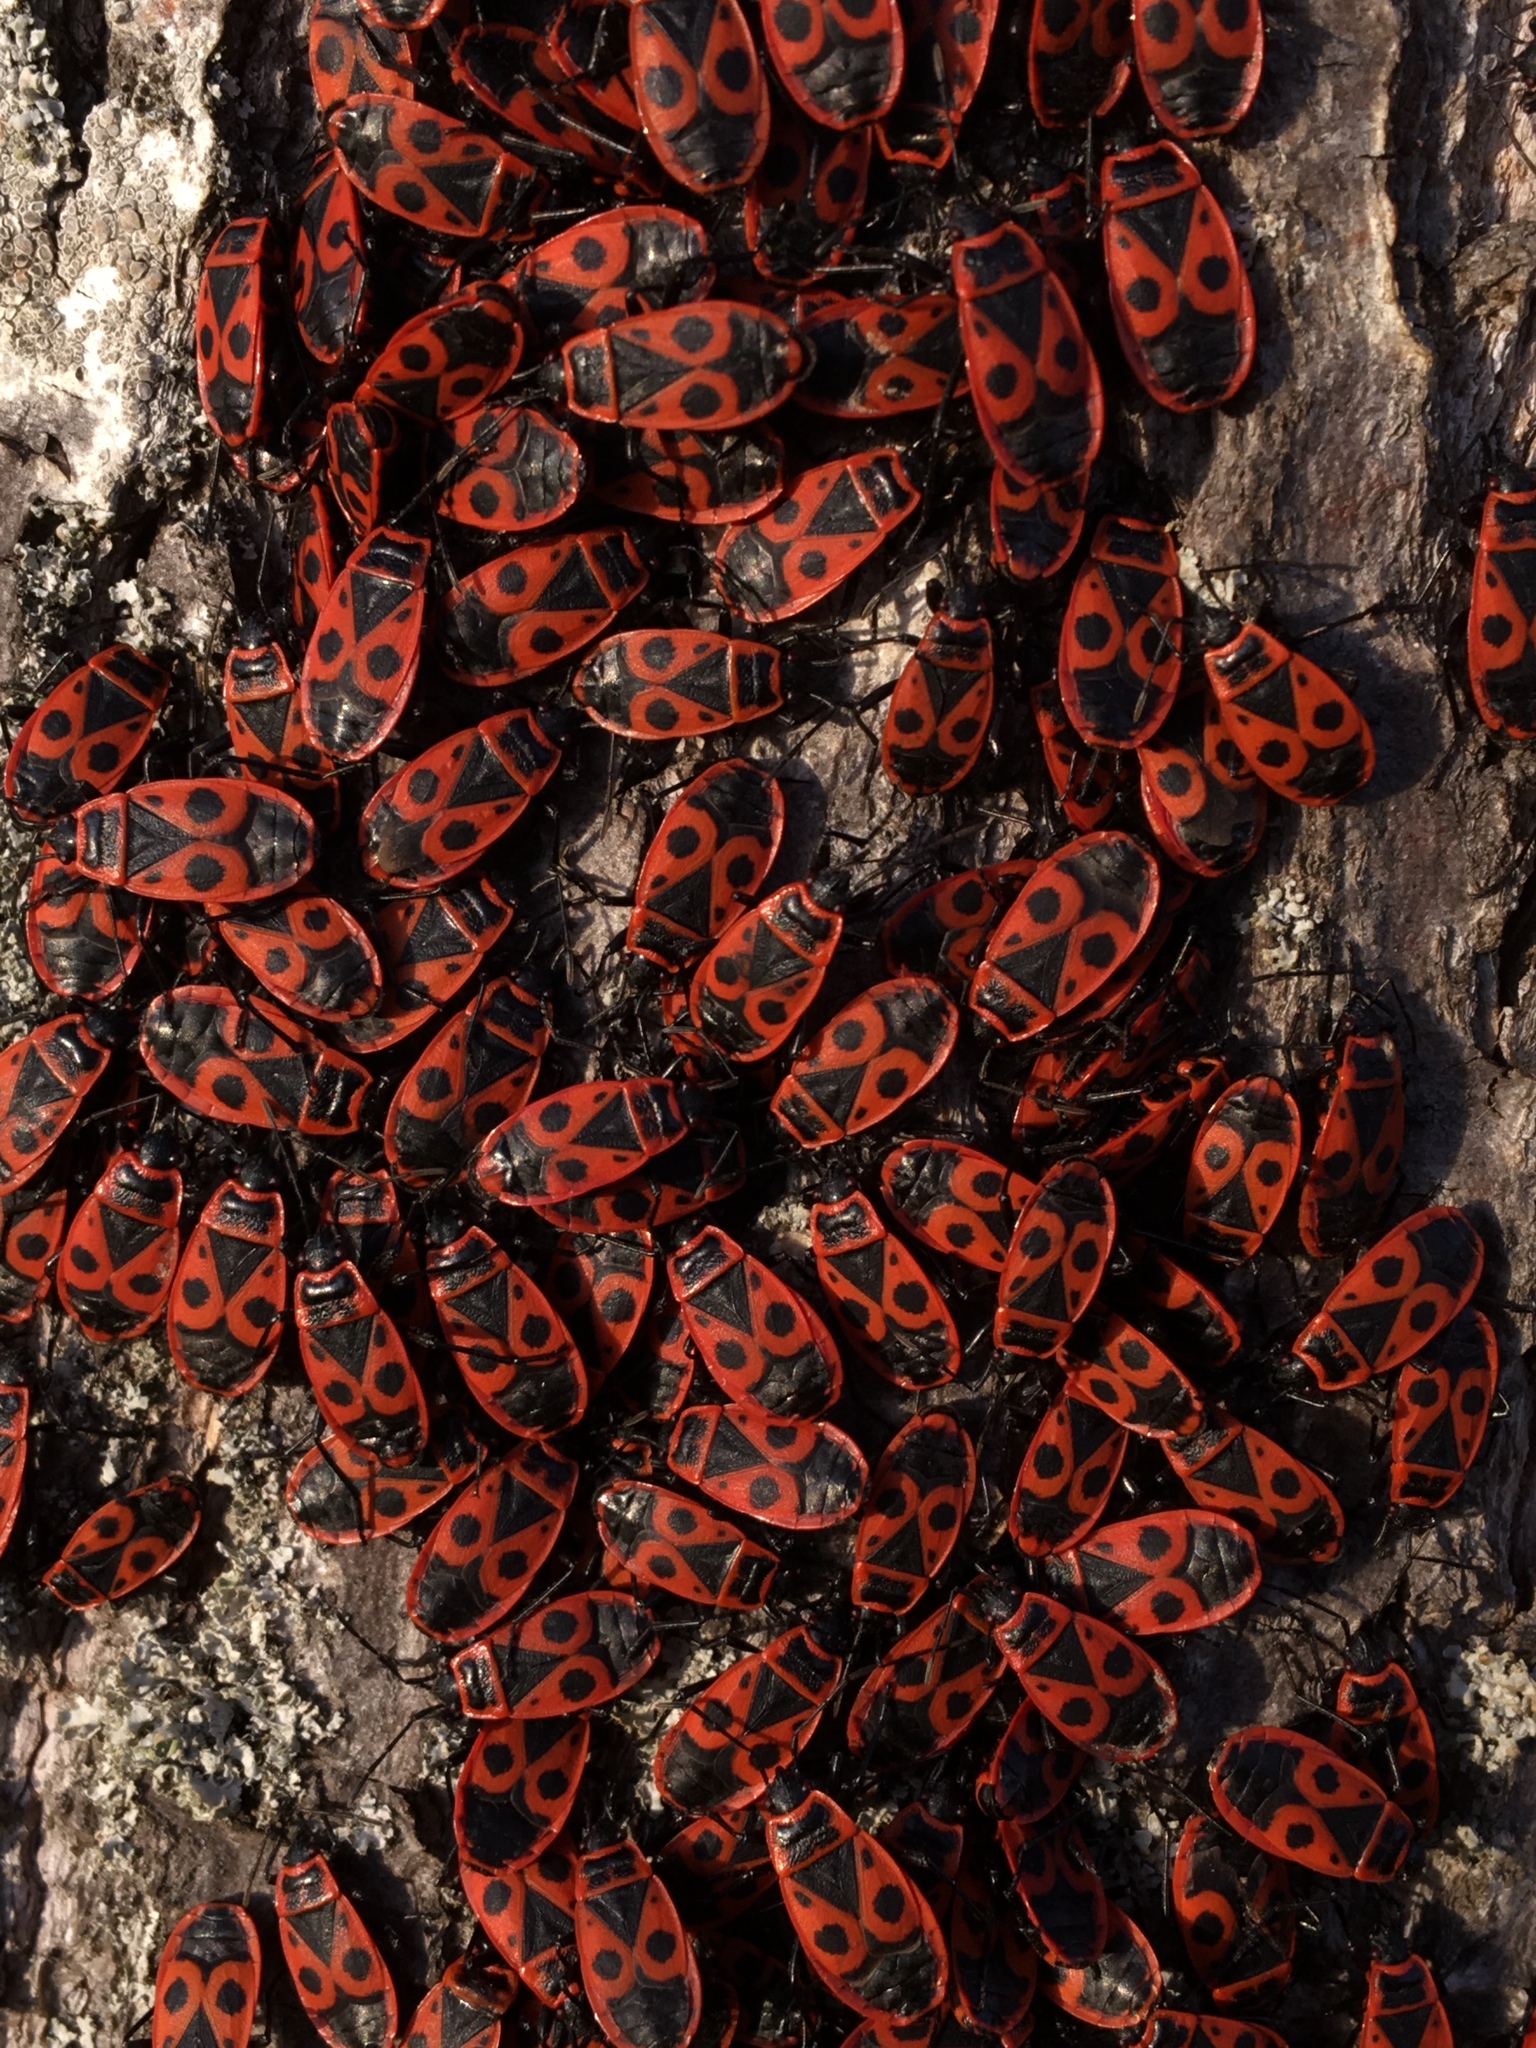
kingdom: Animalia
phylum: Arthropoda
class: Insecta
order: Hemiptera
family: Pyrrhocoridae
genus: Pyrrhocoris
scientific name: Pyrrhocoris apterus
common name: Firebug
